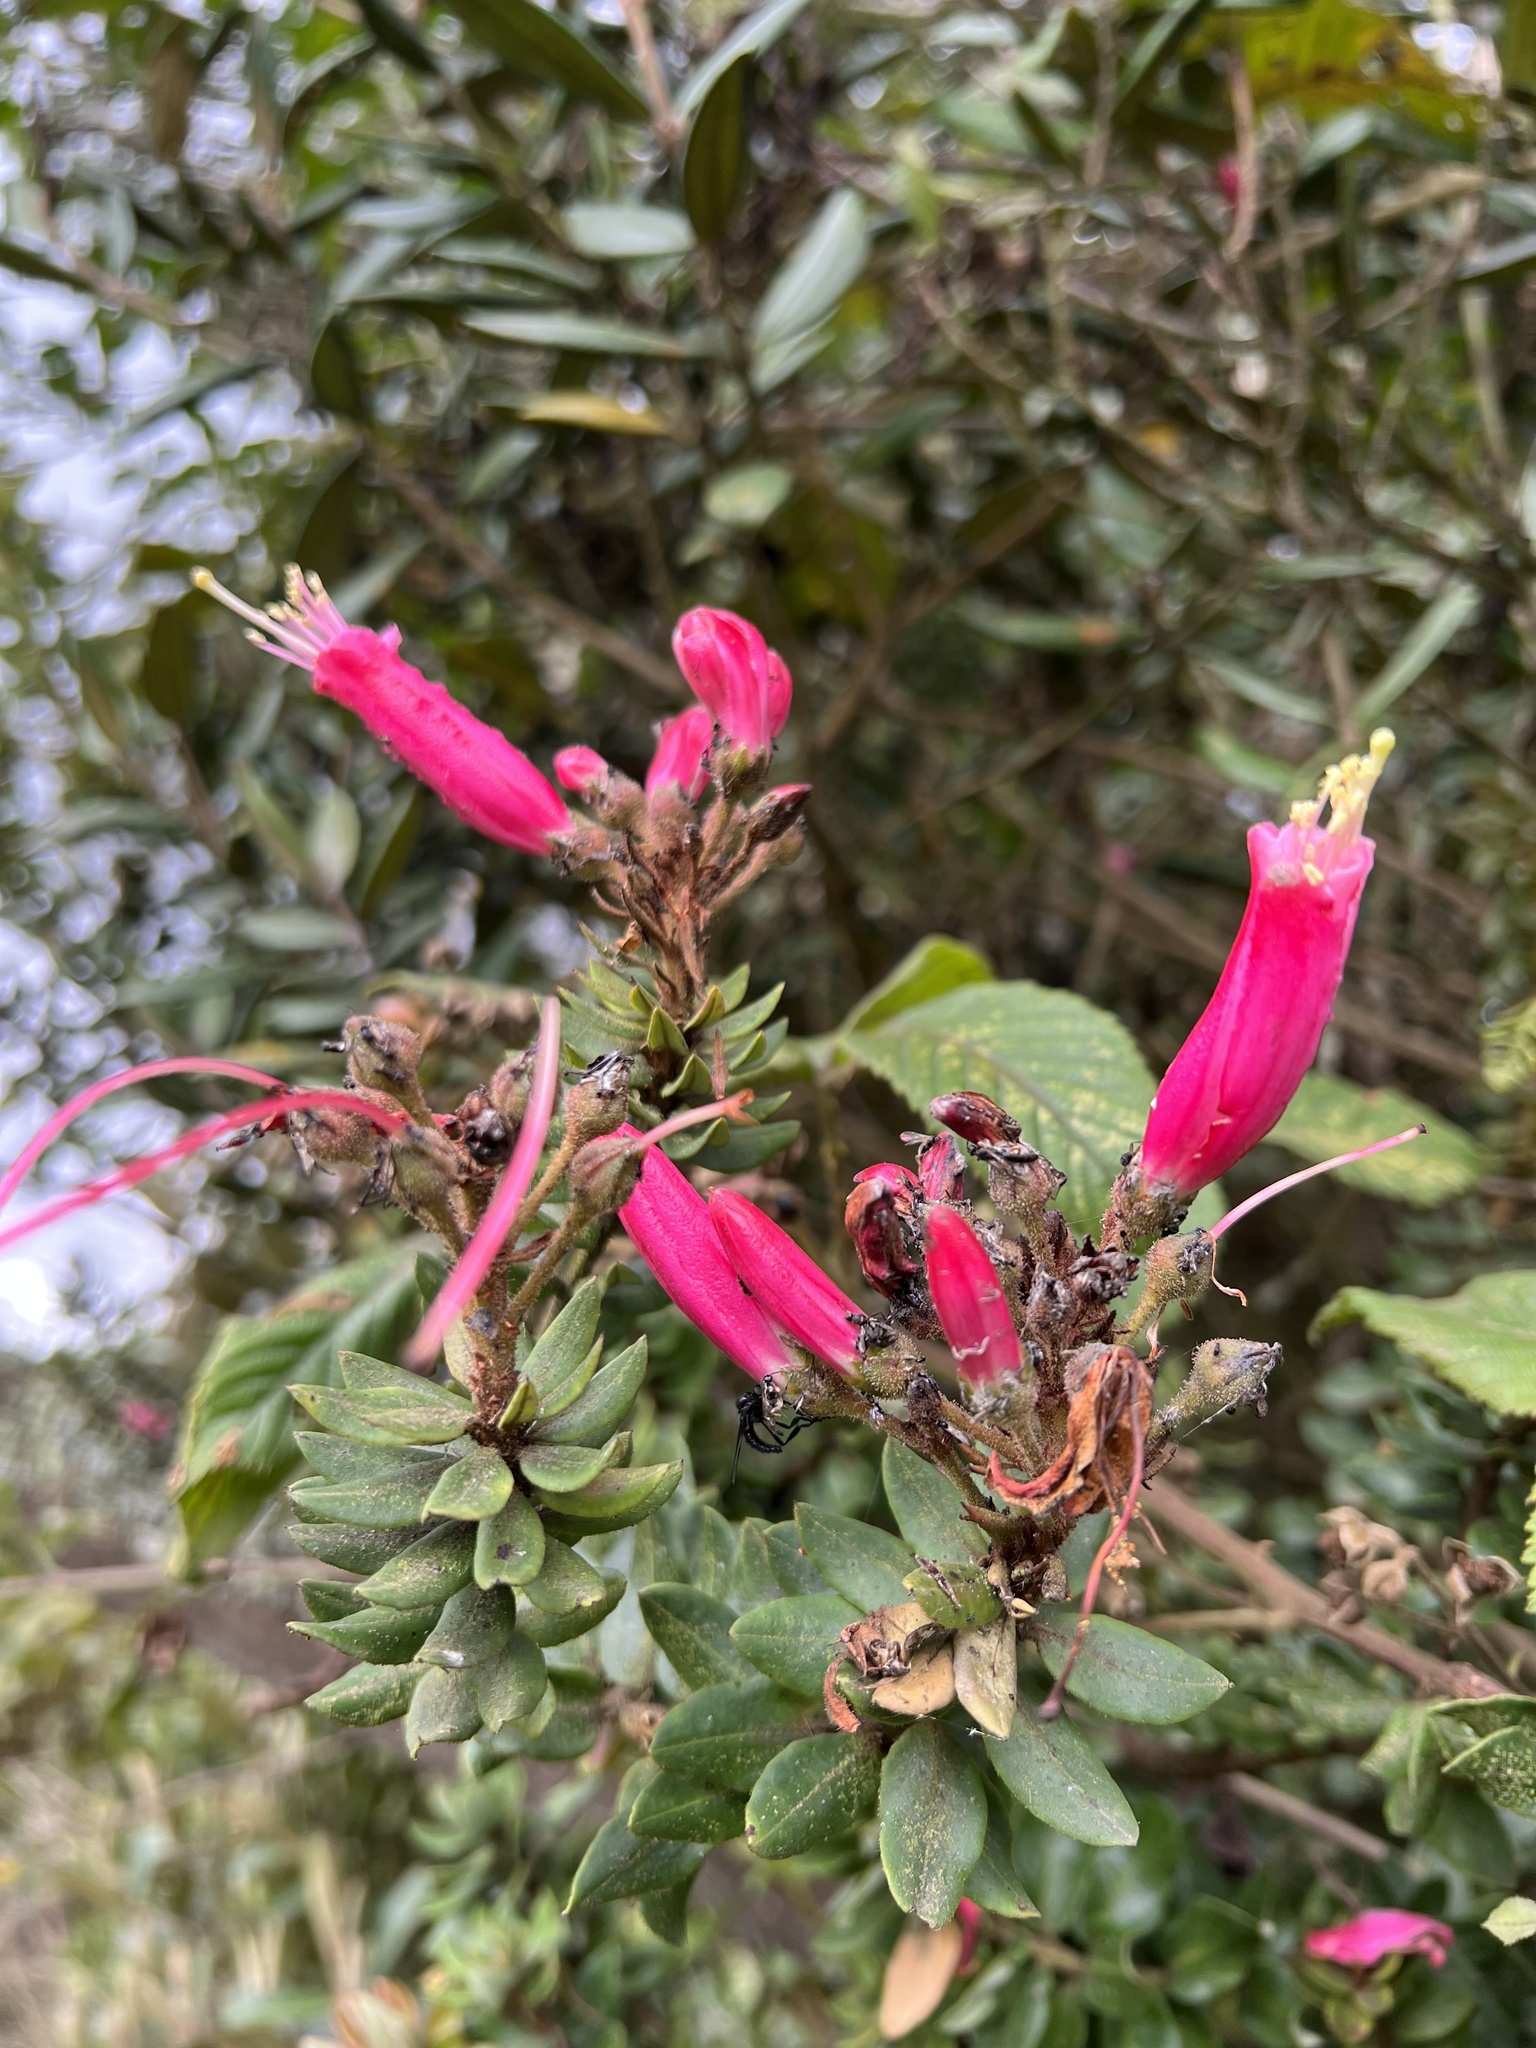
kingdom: Plantae
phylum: Tracheophyta
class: Magnoliopsida
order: Ericales
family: Ericaceae
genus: Bejaria
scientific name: Bejaria resinosa
